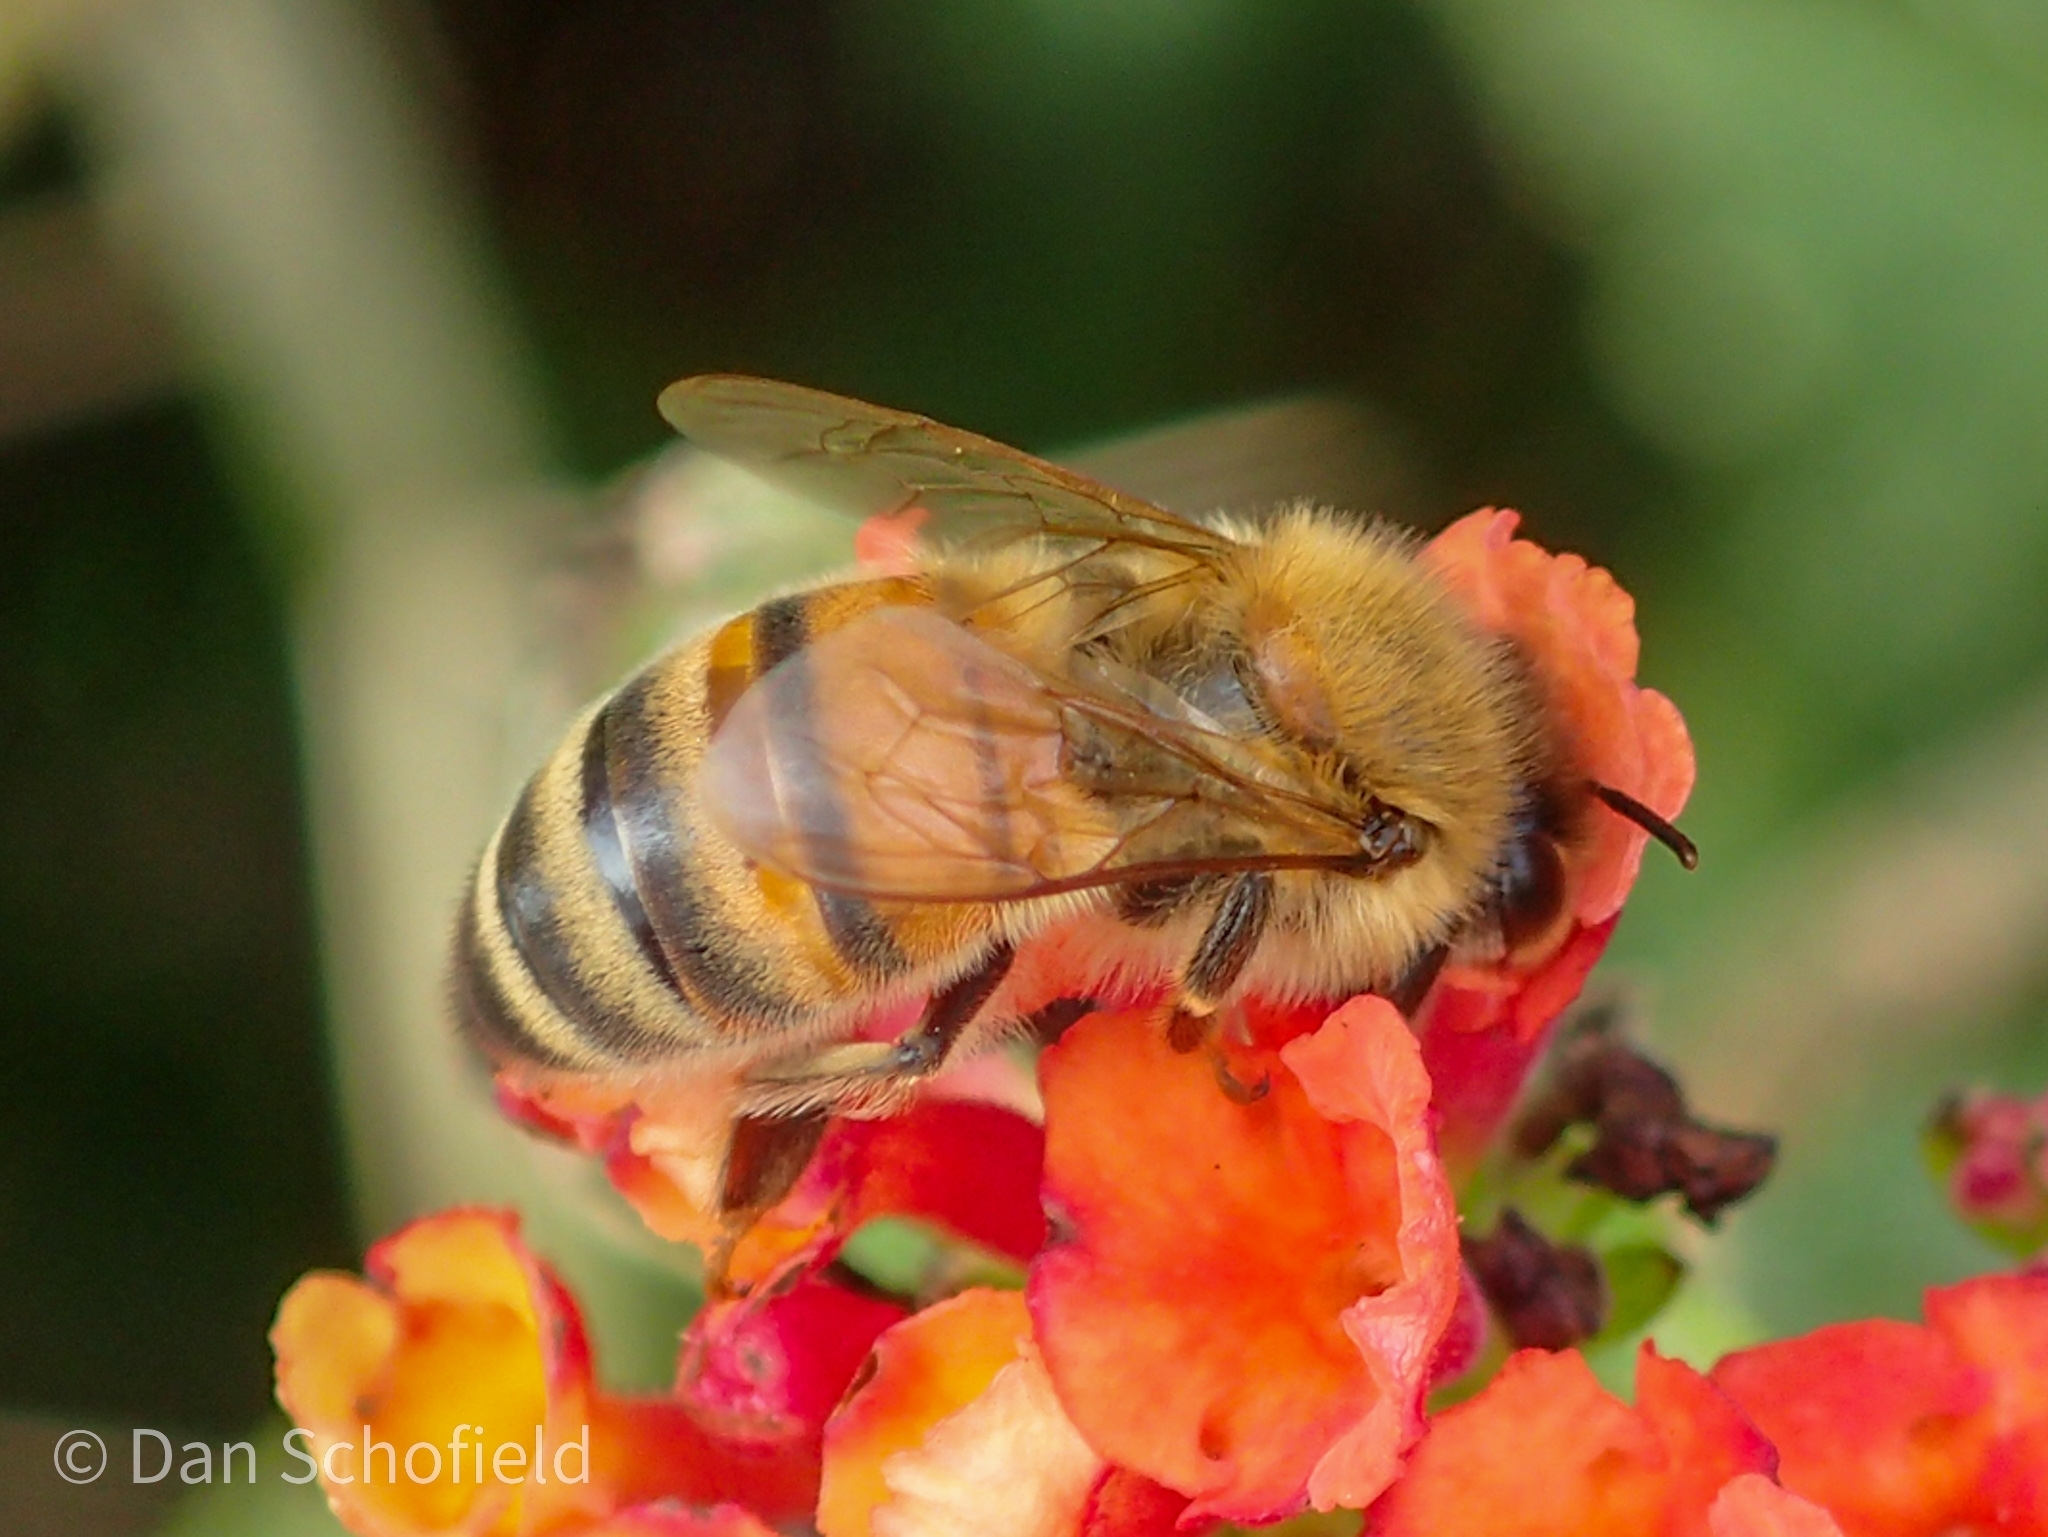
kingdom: Animalia
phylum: Arthropoda
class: Insecta
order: Hymenoptera
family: Apidae
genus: Apis
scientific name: Apis mellifera
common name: Honey bee
